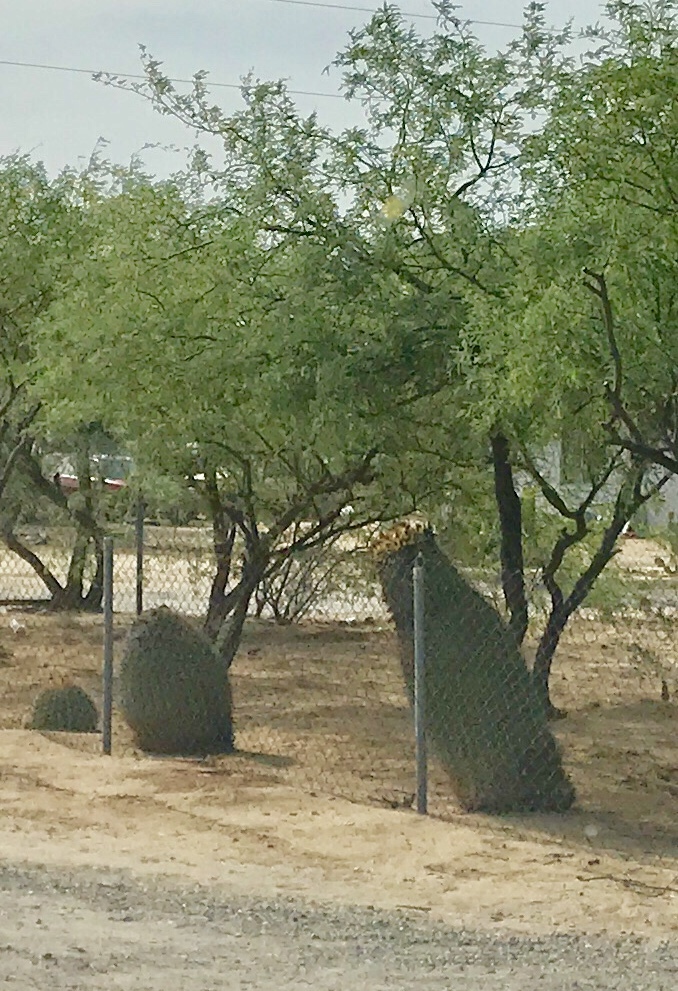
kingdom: Plantae
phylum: Tracheophyta
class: Magnoliopsida
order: Caryophyllales
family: Cactaceae
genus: Ferocactus
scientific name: Ferocactus wislizeni
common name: Candy barrel cactus
